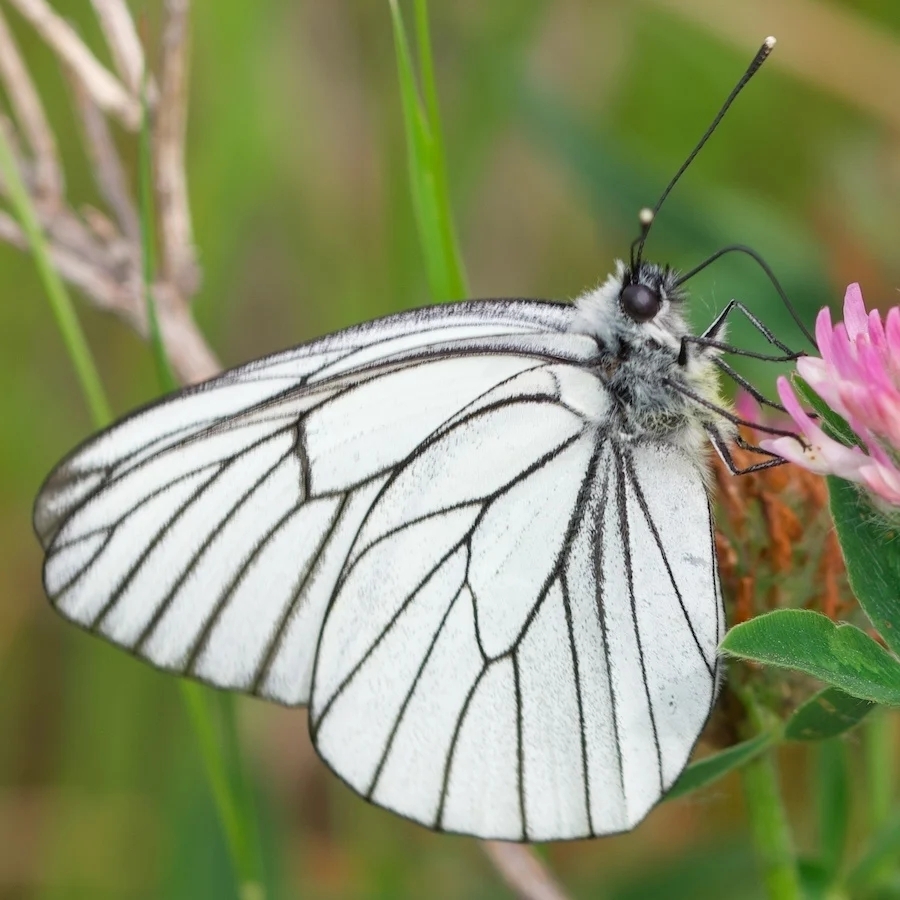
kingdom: Animalia
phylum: Arthropoda
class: Insecta
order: Lepidoptera
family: Pieridae
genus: Aporia
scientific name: Aporia crataegi
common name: Black-veined white
